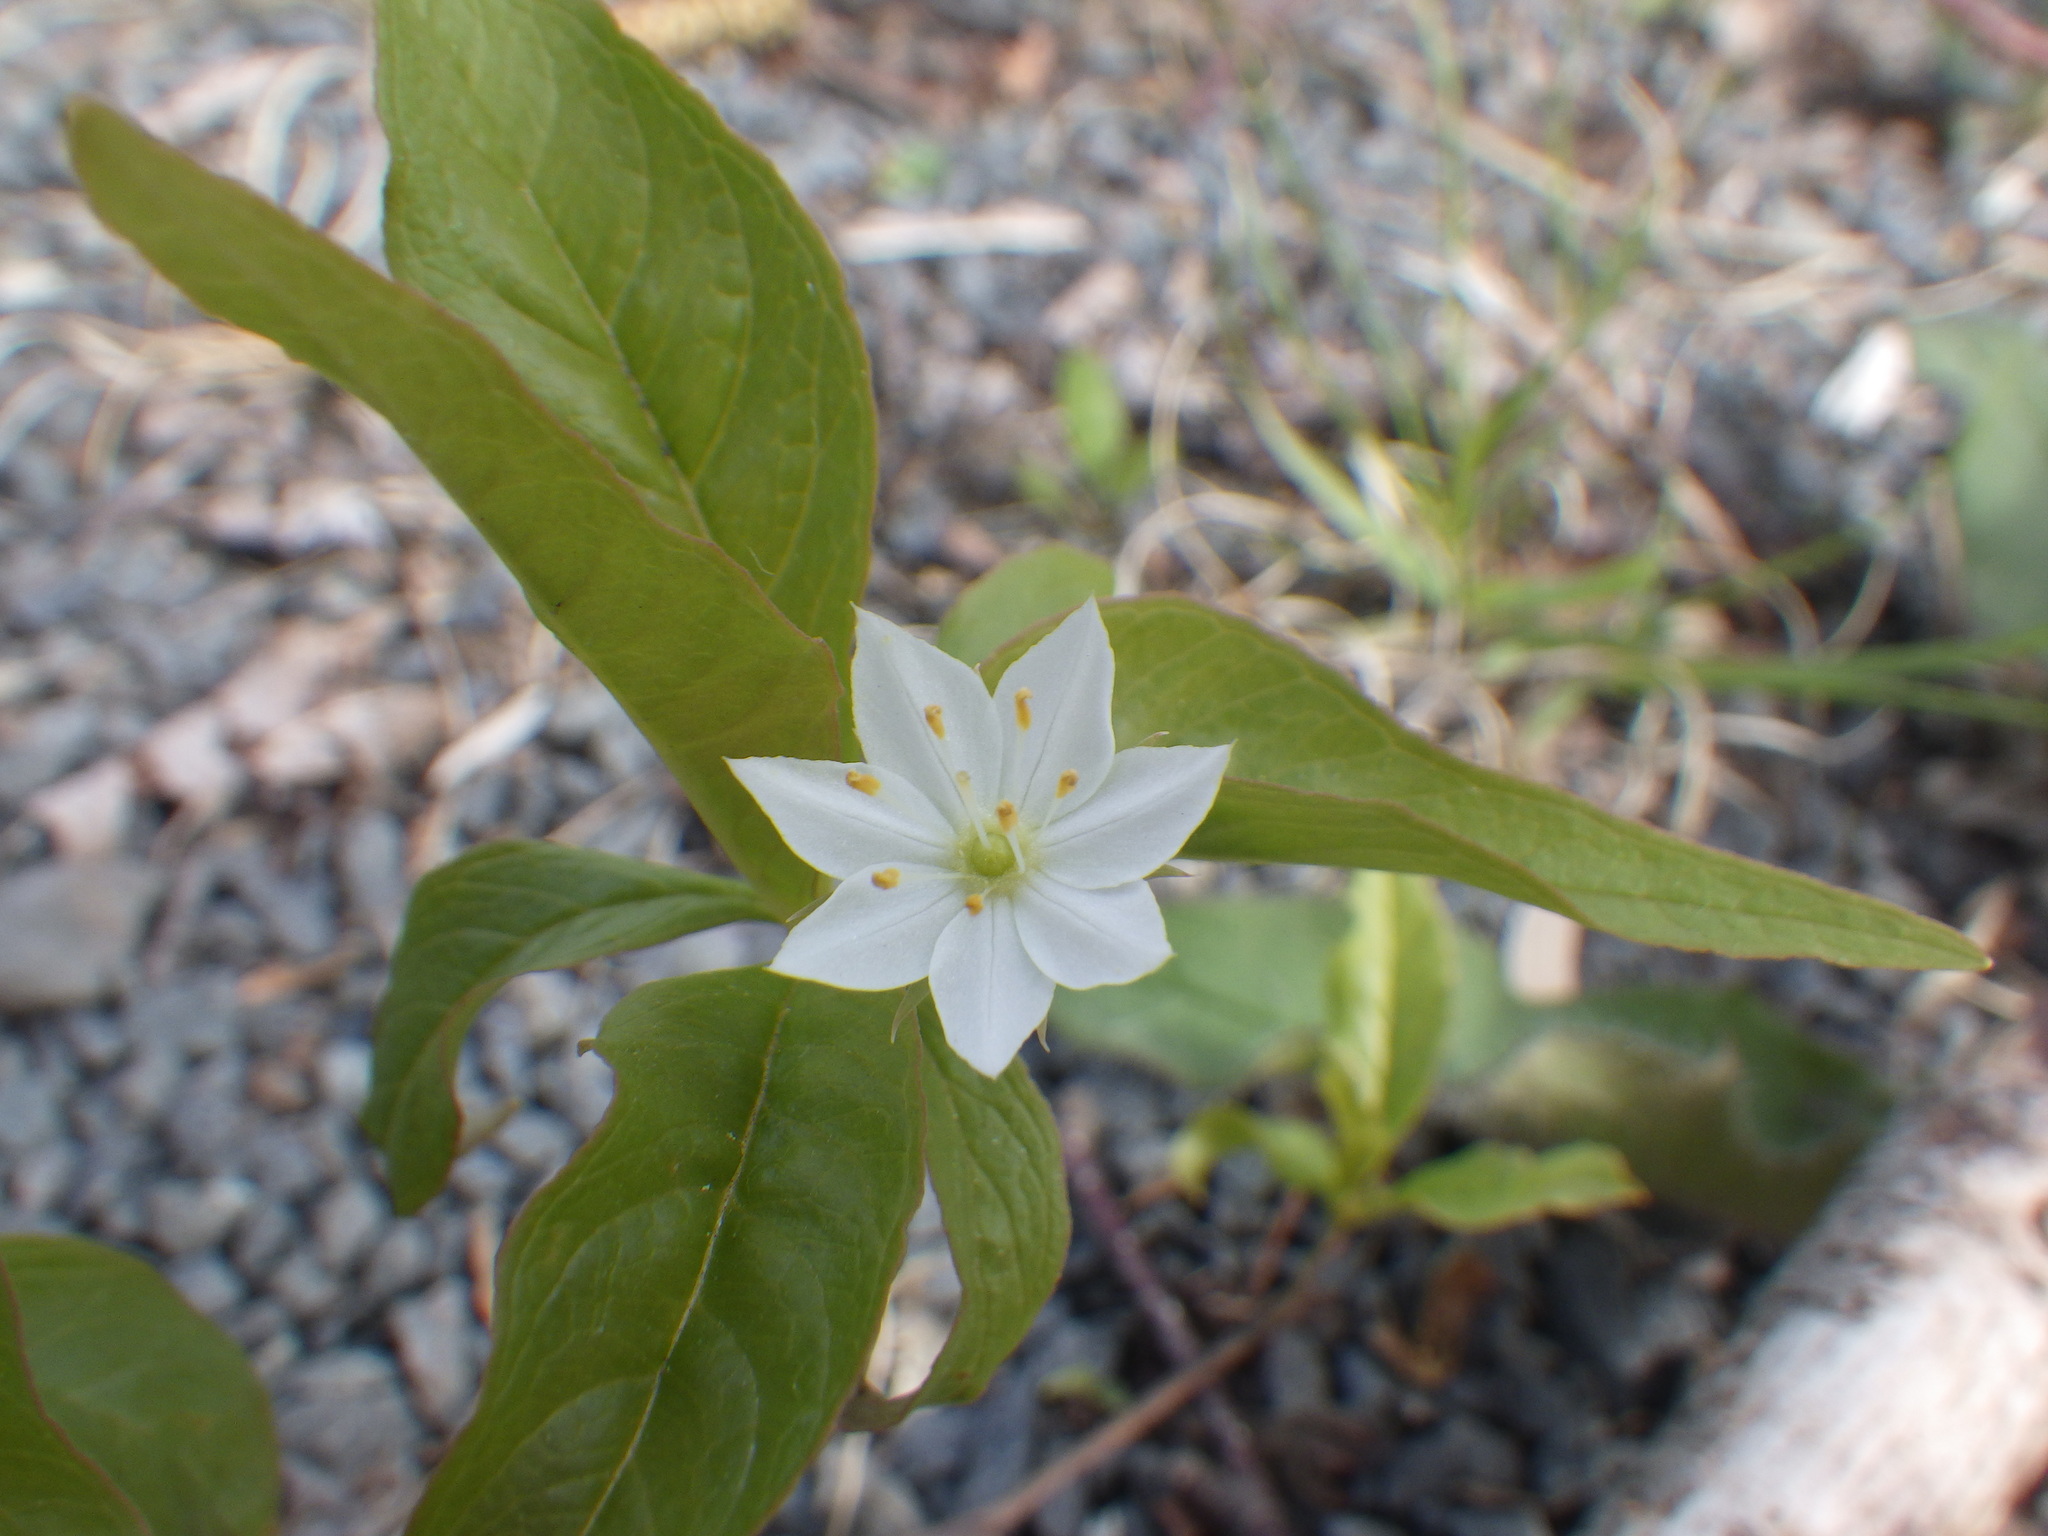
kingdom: Plantae
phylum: Tracheophyta
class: Magnoliopsida
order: Ericales
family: Primulaceae
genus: Lysimachia
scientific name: Lysimachia borealis
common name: American starflower
